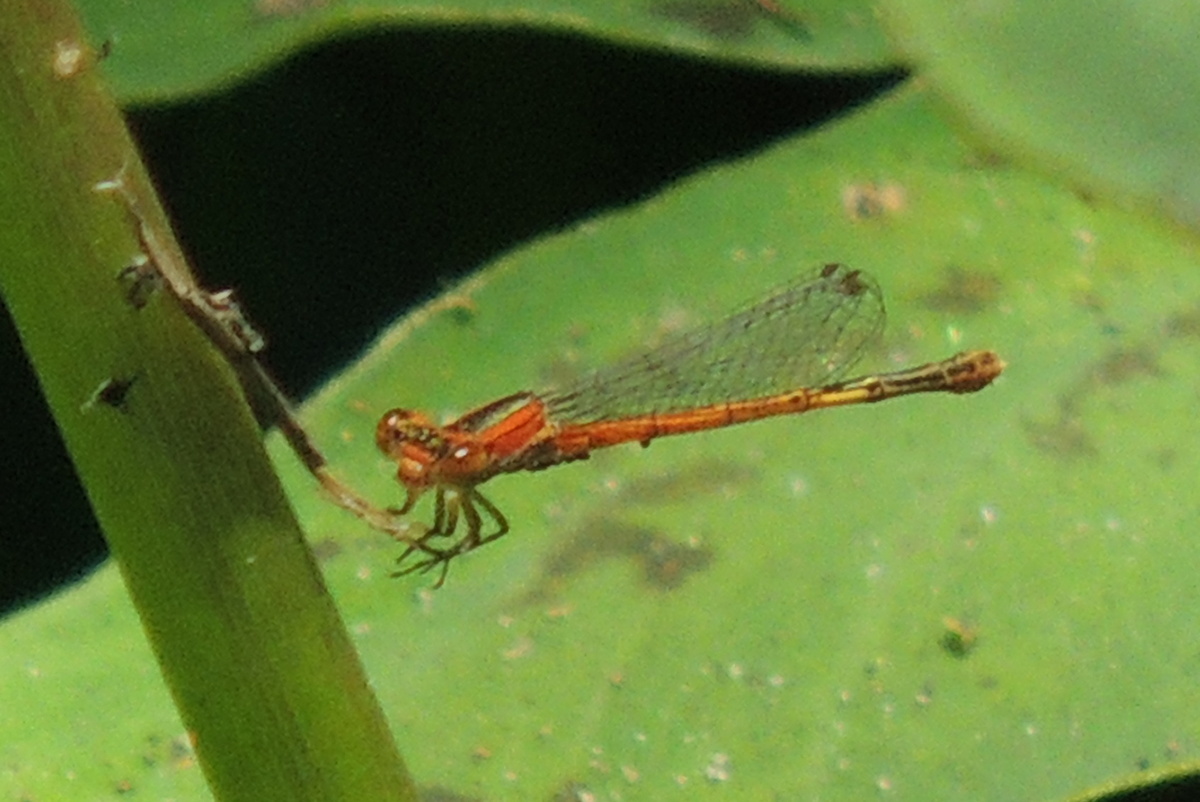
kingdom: Animalia
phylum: Arthropoda
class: Insecta
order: Odonata
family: Coenagrionidae
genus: Ischnura
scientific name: Ischnura hastata
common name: Citrine forktail
